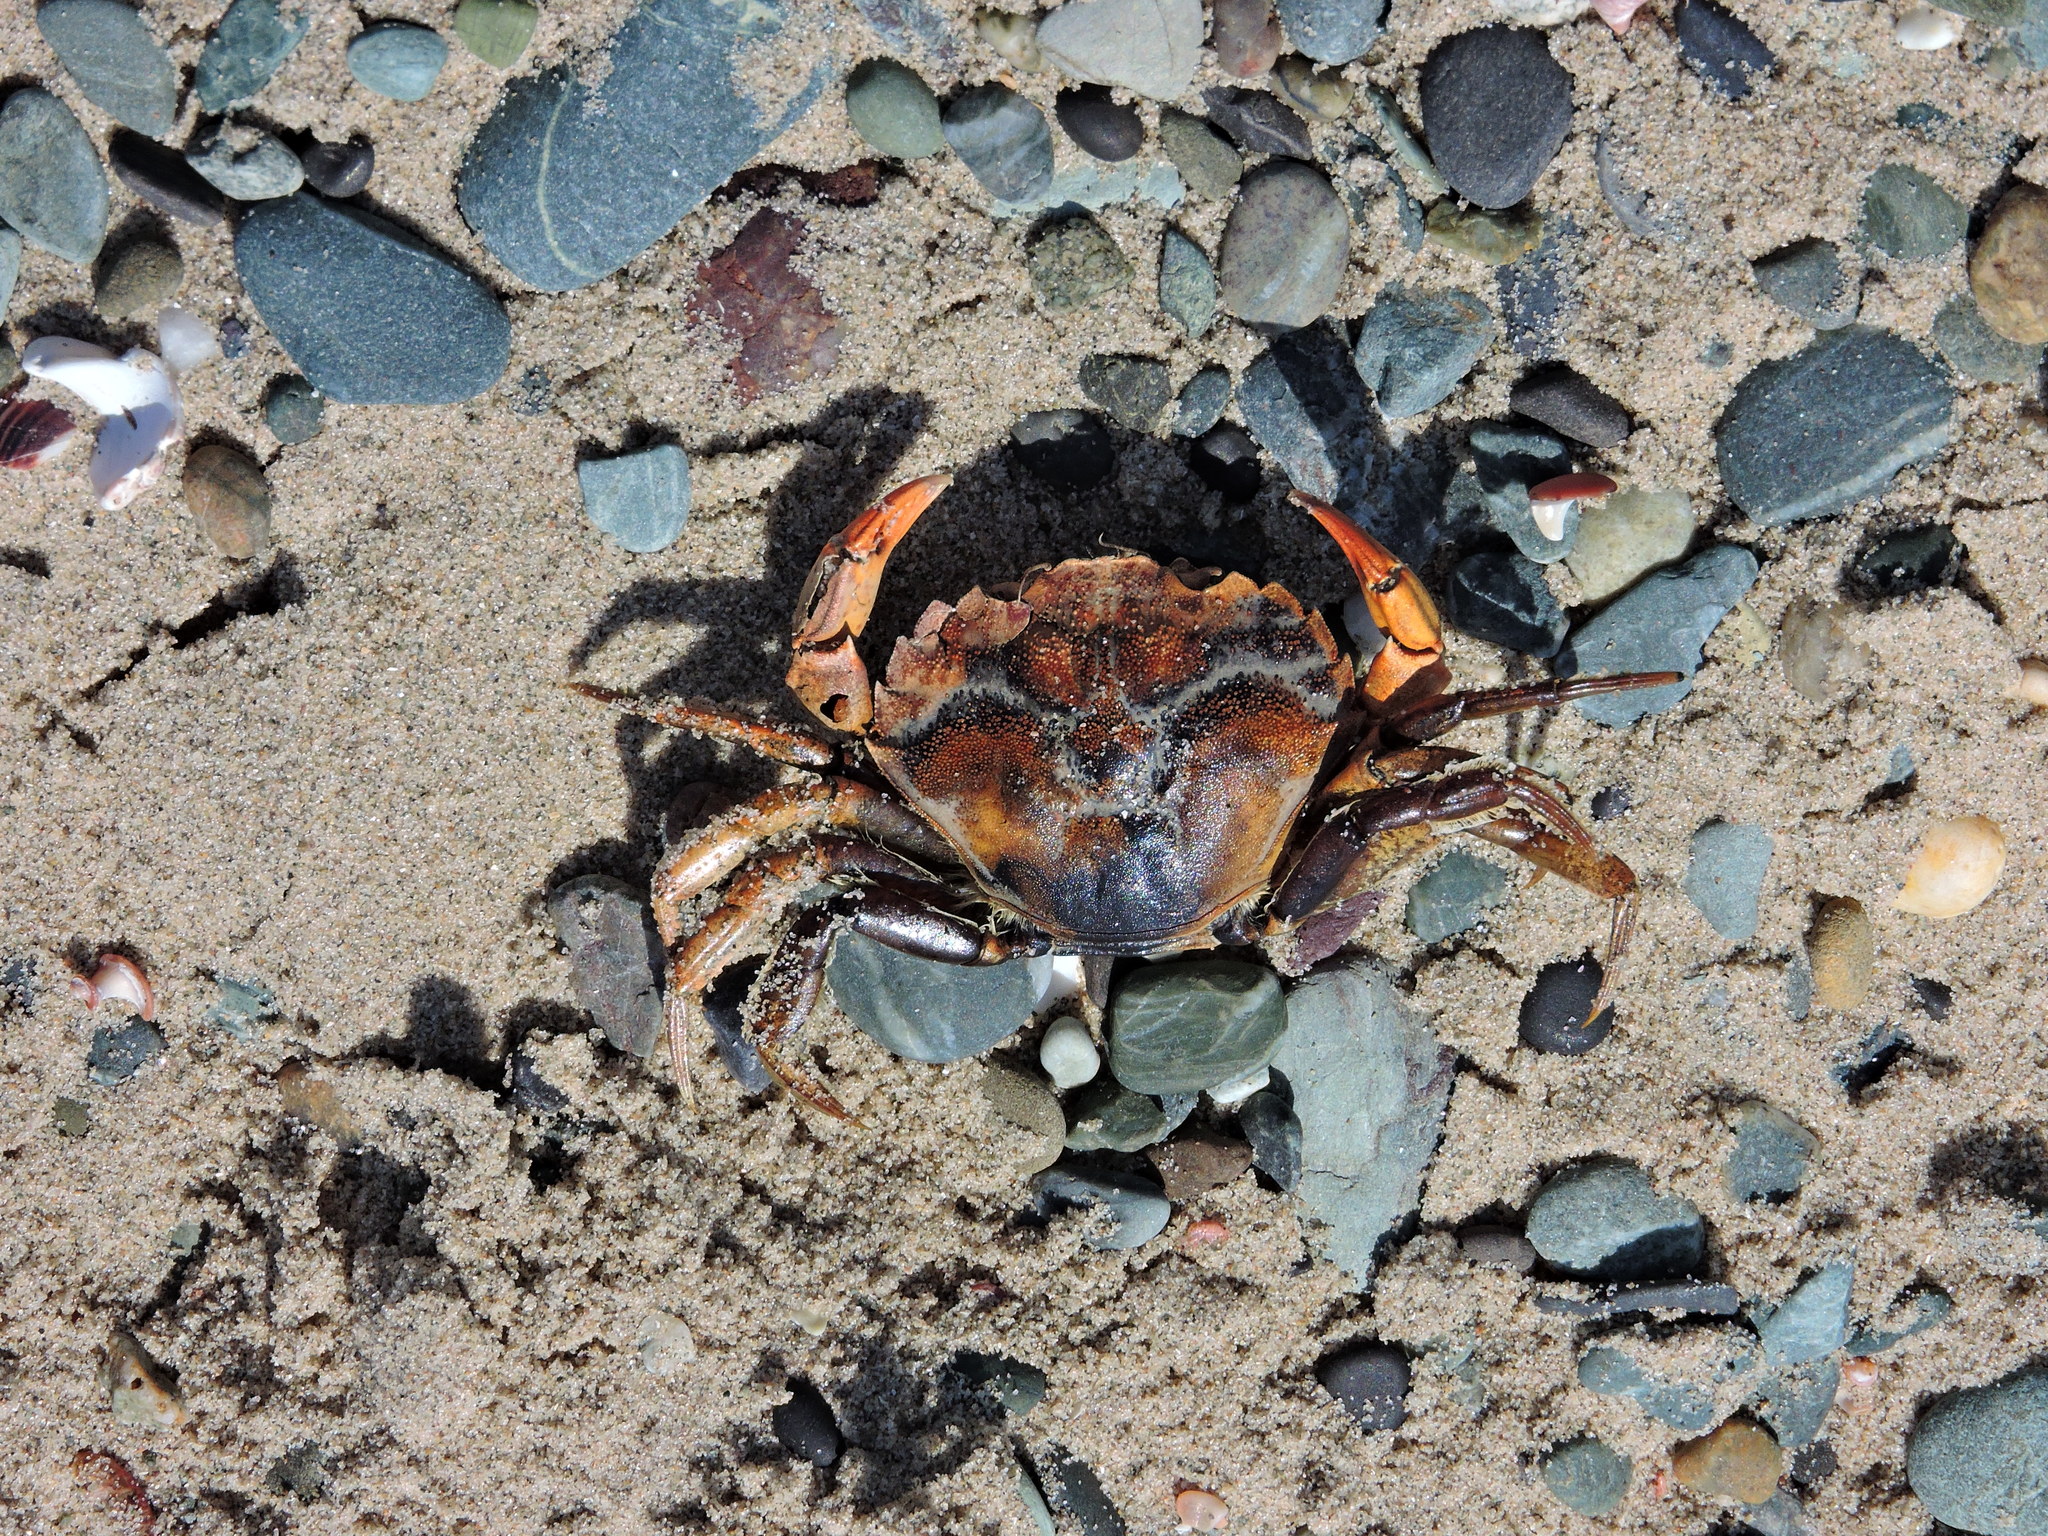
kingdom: Animalia
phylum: Arthropoda
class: Malacostraca
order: Decapoda
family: Carcinidae
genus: Carcinus
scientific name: Carcinus maenas
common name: European green crab
